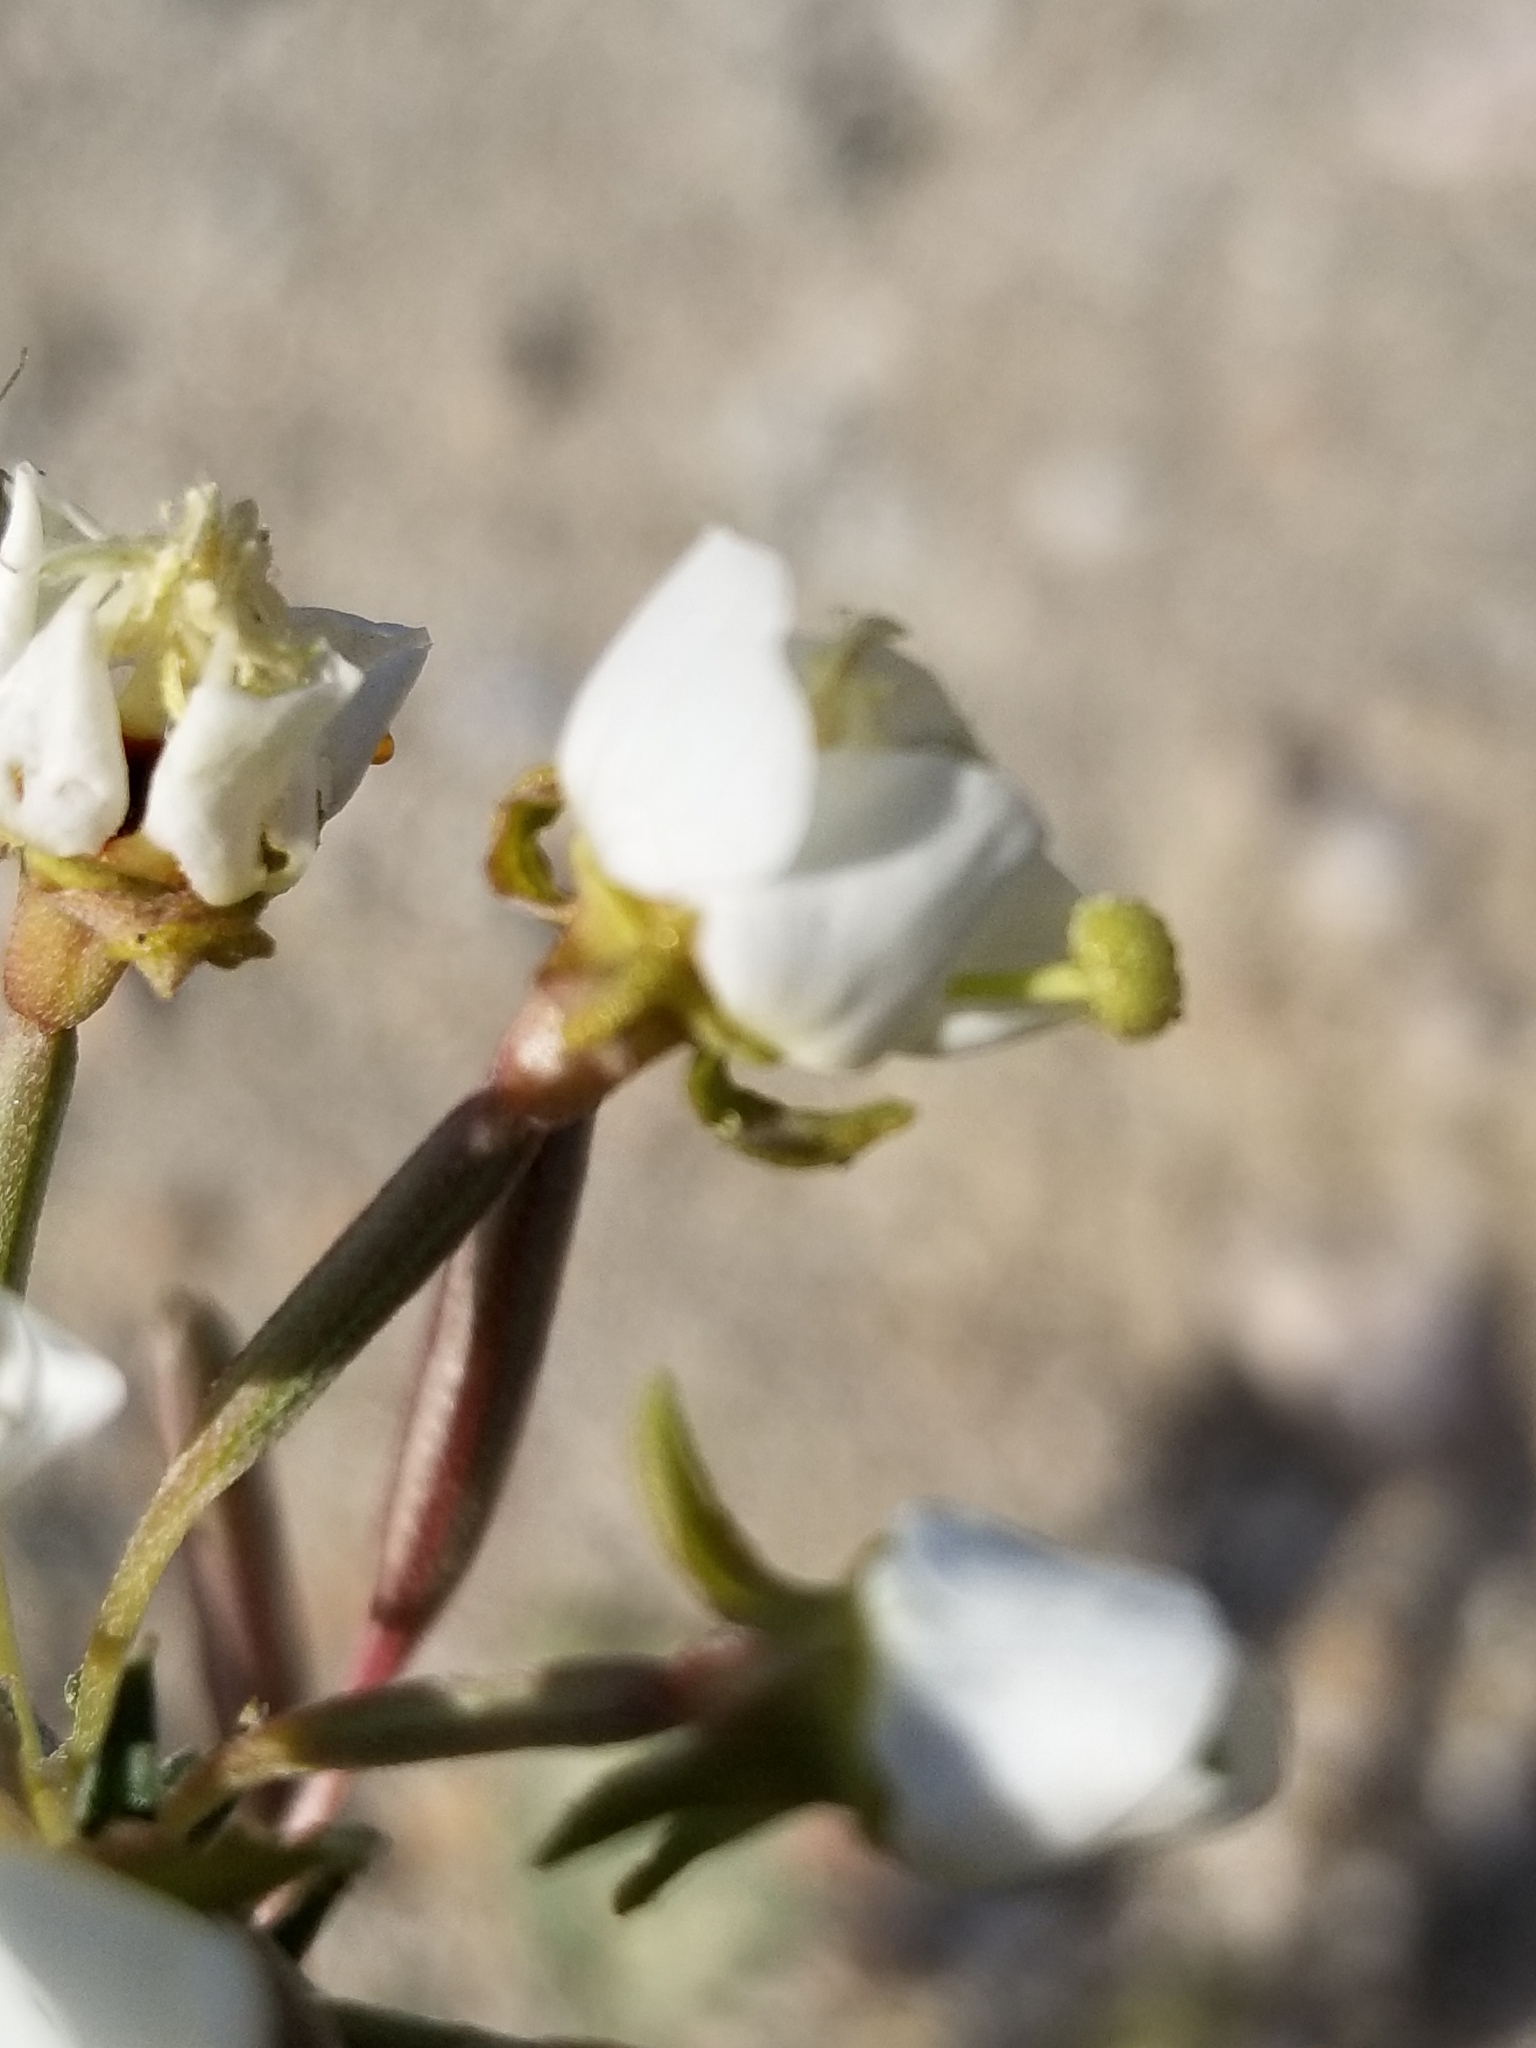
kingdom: Plantae
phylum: Tracheophyta
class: Magnoliopsida
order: Myrtales
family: Onagraceae
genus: Chylismia
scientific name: Chylismia claviformis
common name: Browneyes
